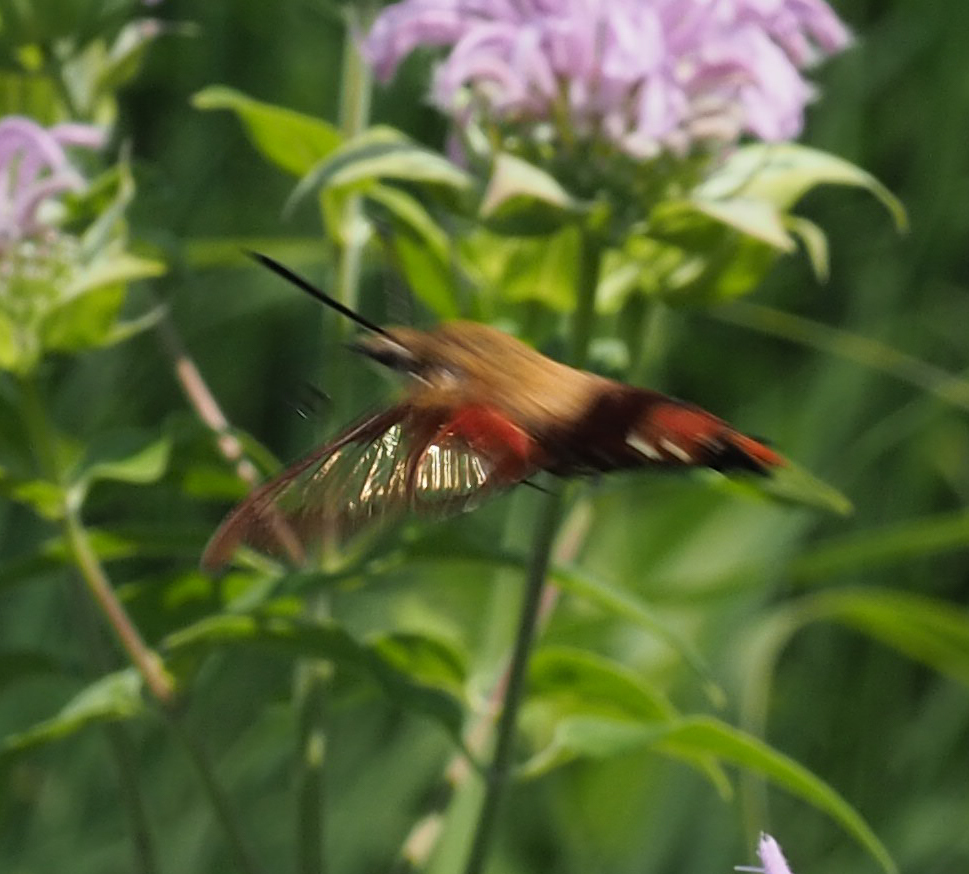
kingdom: Animalia
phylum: Arthropoda
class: Insecta
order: Lepidoptera
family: Sphingidae
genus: Hemaris
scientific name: Hemaris thysbe
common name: Common clear-wing
